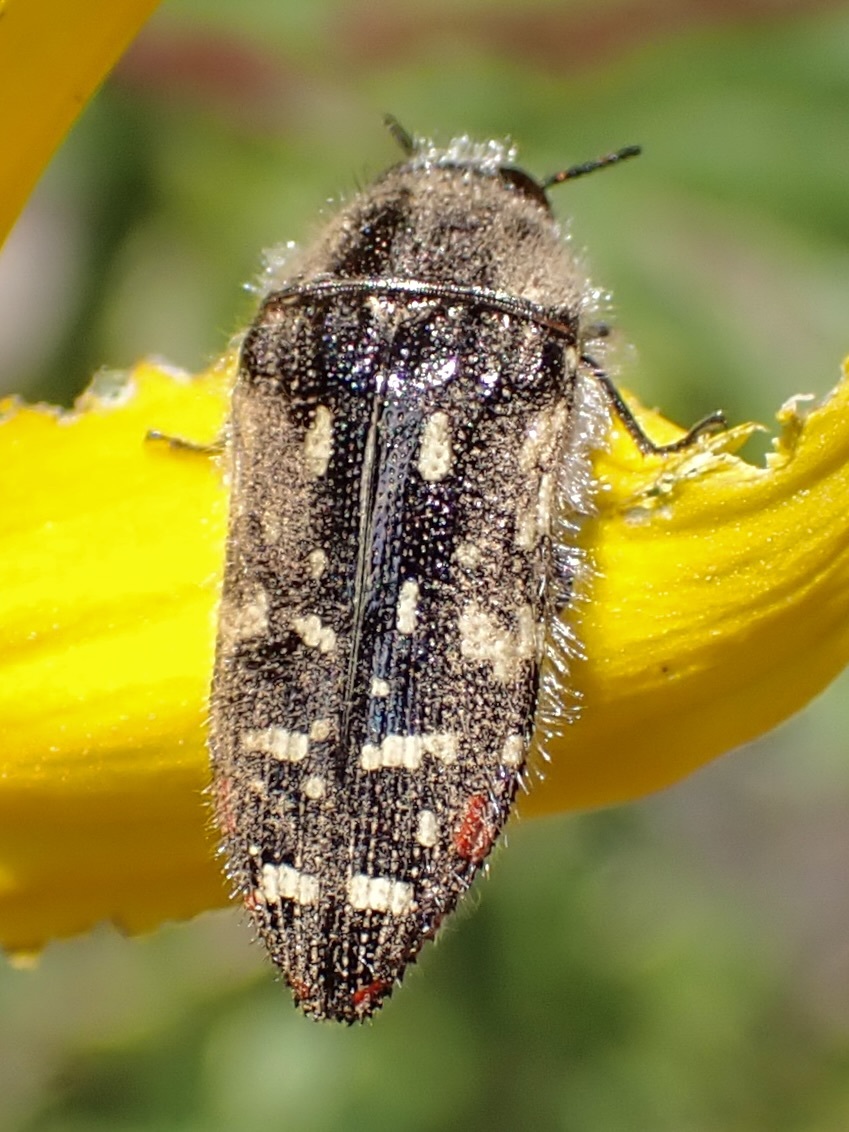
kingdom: Animalia
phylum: Arthropoda
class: Insecta
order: Coleoptera
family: Buprestidae
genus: Acmaeodera
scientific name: Acmaeodera rubronotata
